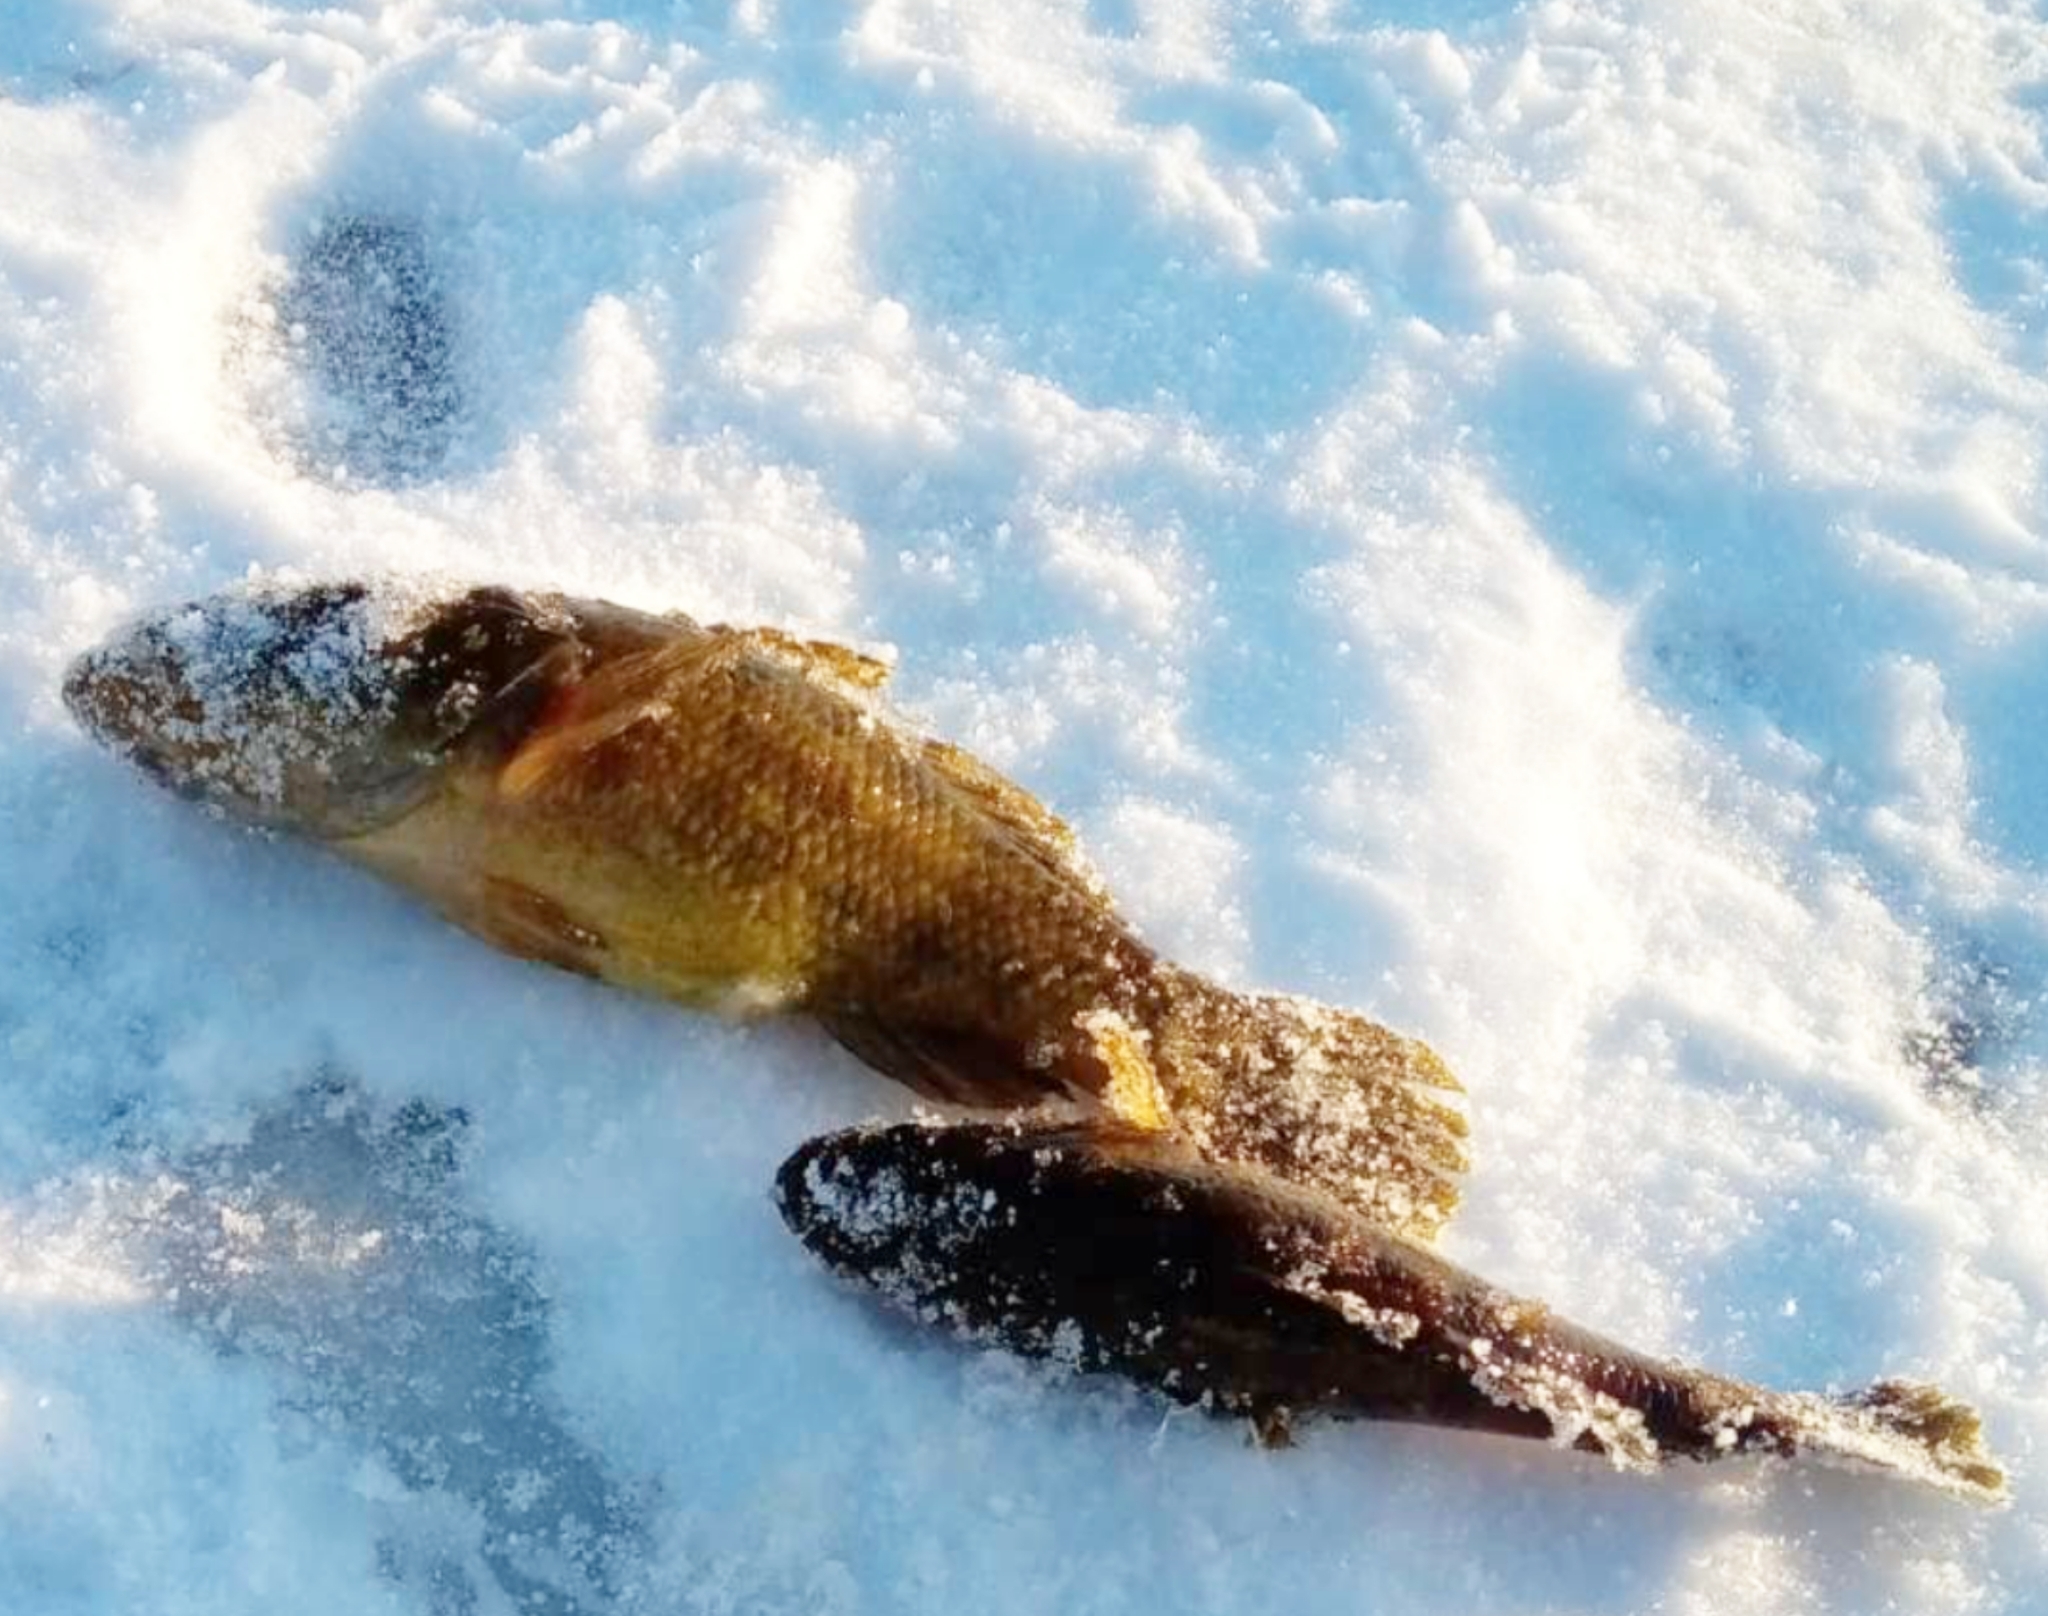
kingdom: Animalia
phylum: Chordata
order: Perciformes
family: Odontobutidae
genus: Perccottus
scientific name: Perccottus glenii
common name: Amur sleeper
